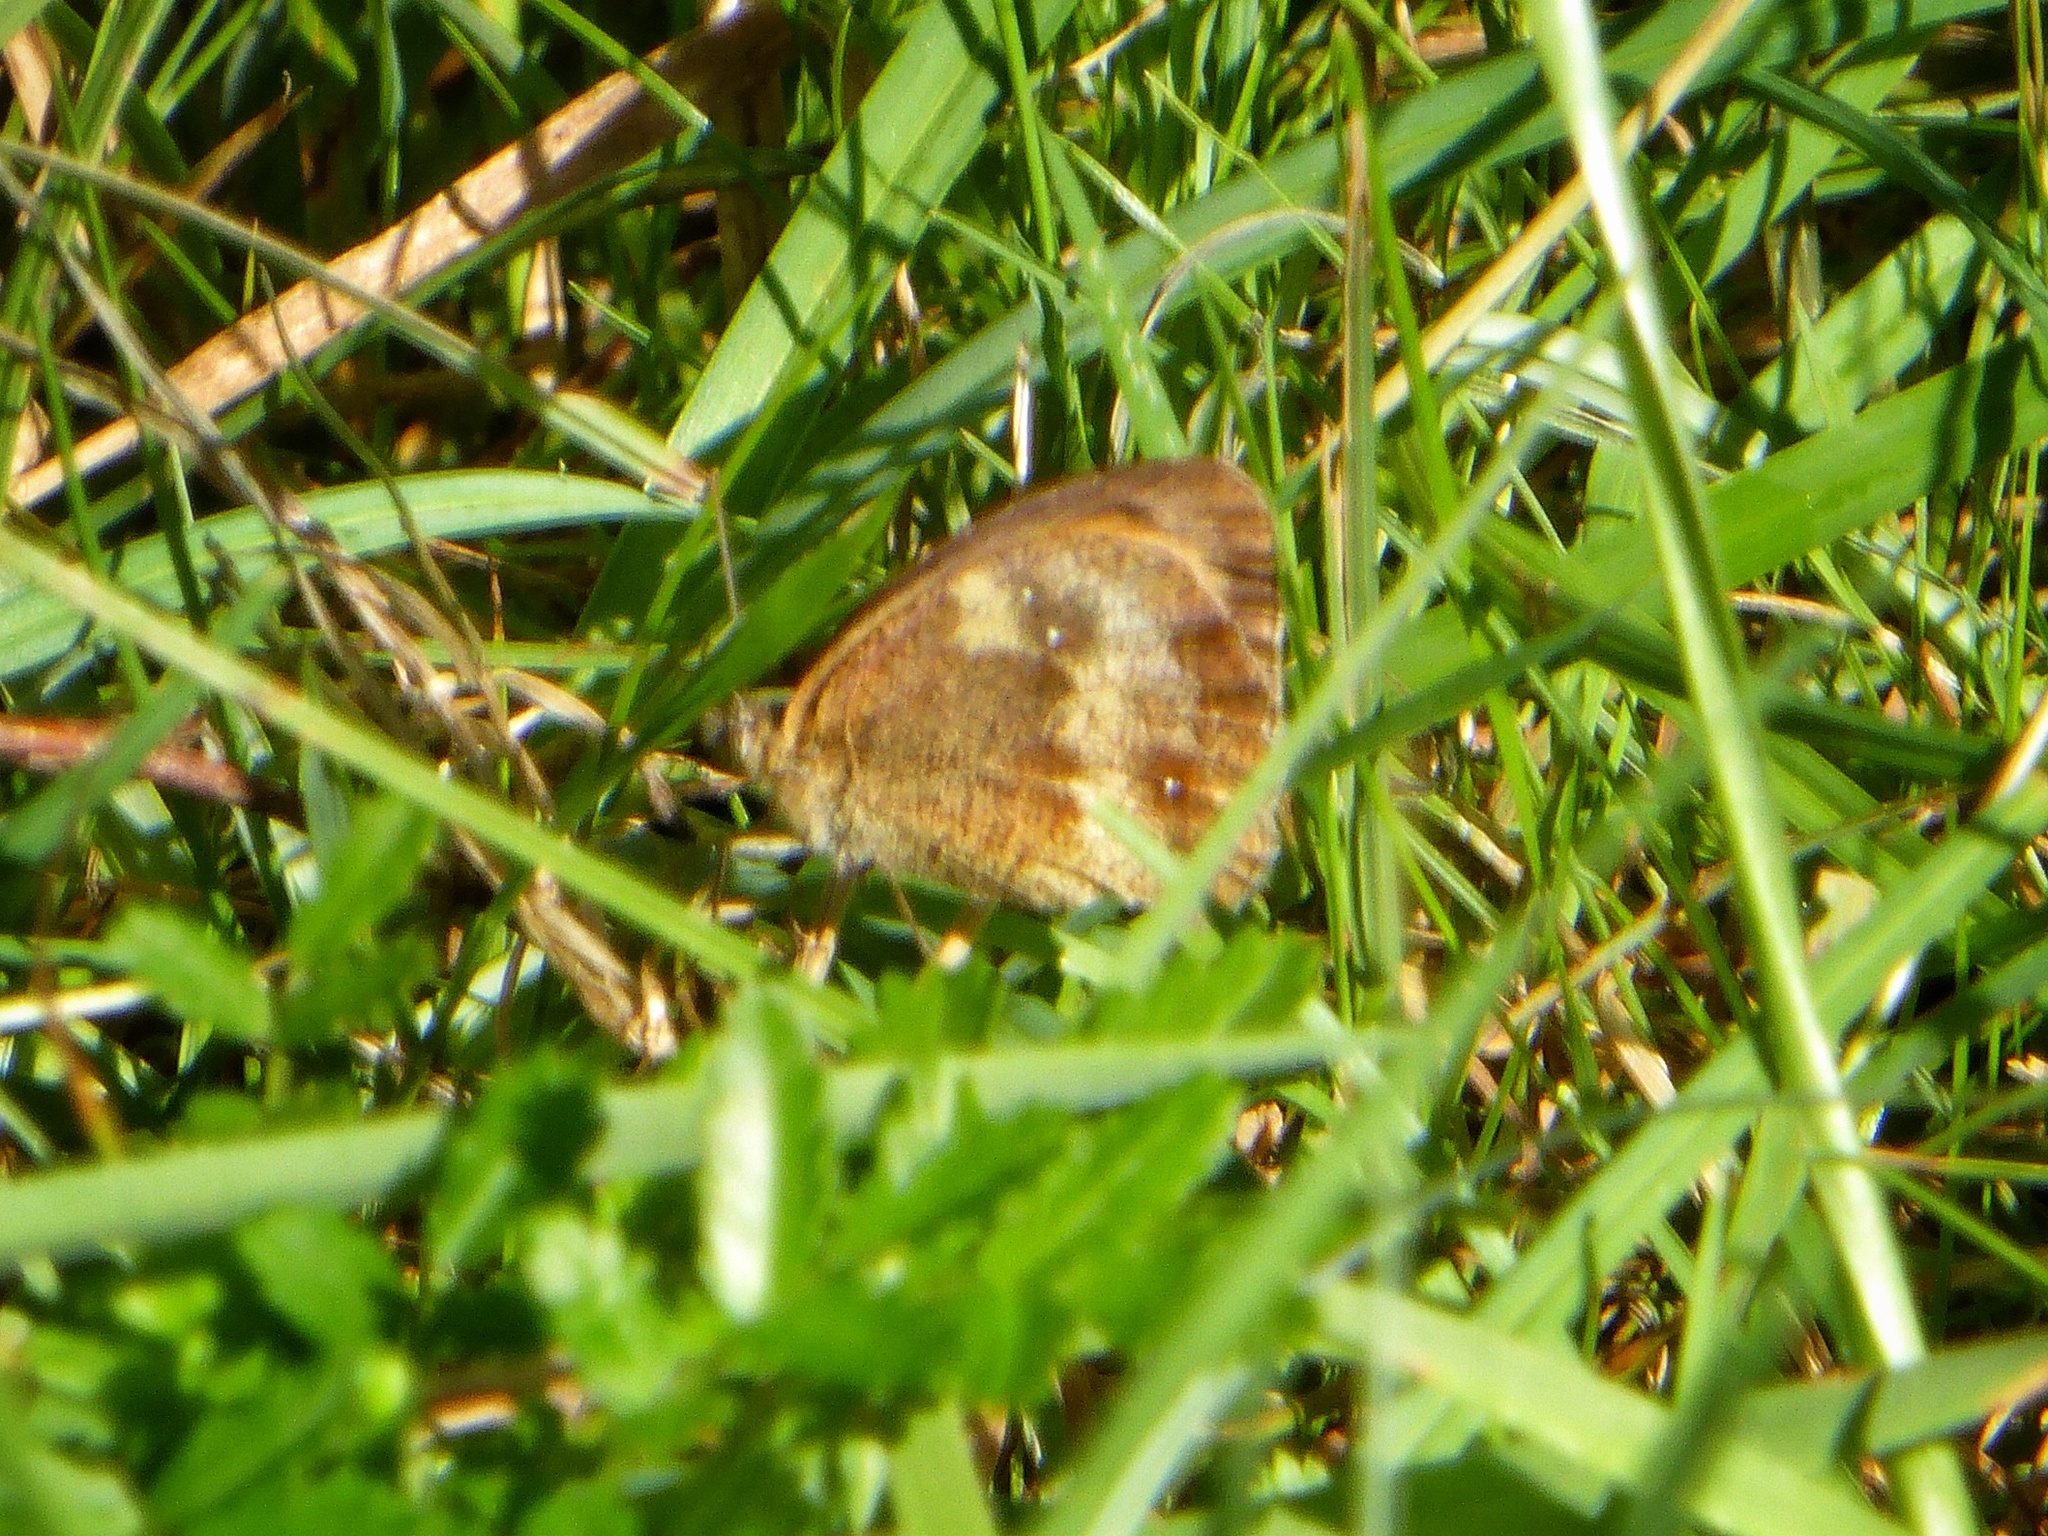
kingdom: Animalia
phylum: Arthropoda
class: Insecta
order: Lepidoptera
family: Nymphalidae
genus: Pyronia
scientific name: Pyronia tithonus
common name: Gatekeeper
